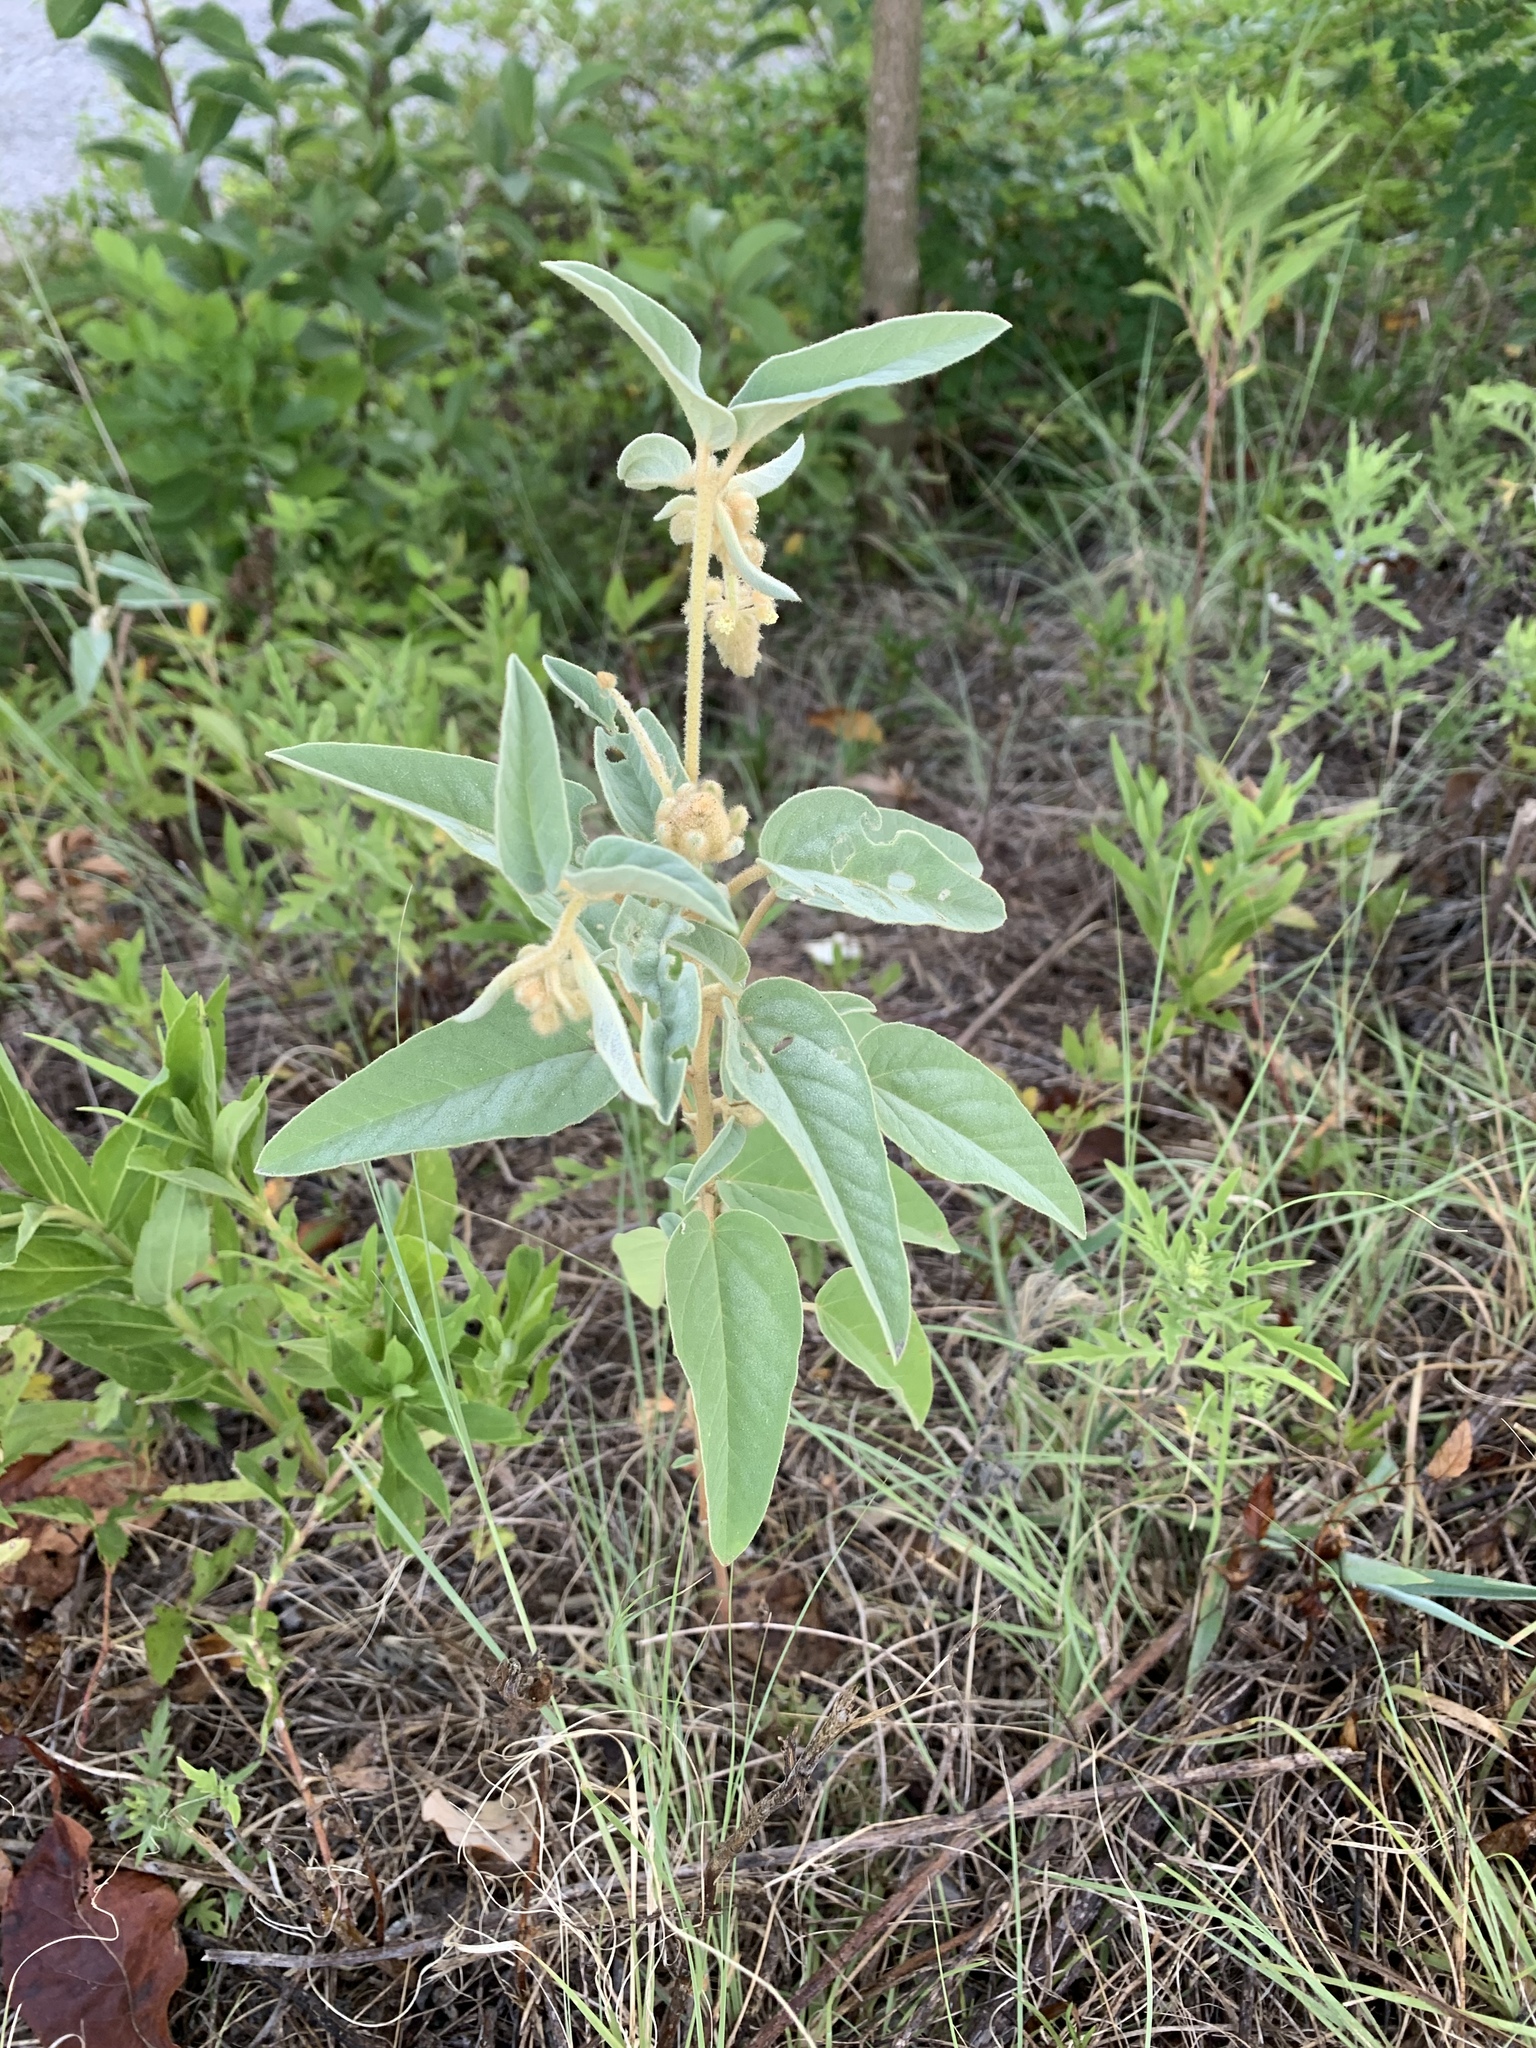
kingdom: Plantae
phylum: Tracheophyta
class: Magnoliopsida
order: Malpighiales
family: Euphorbiaceae
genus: Croton
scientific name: Croton lindheimeri
